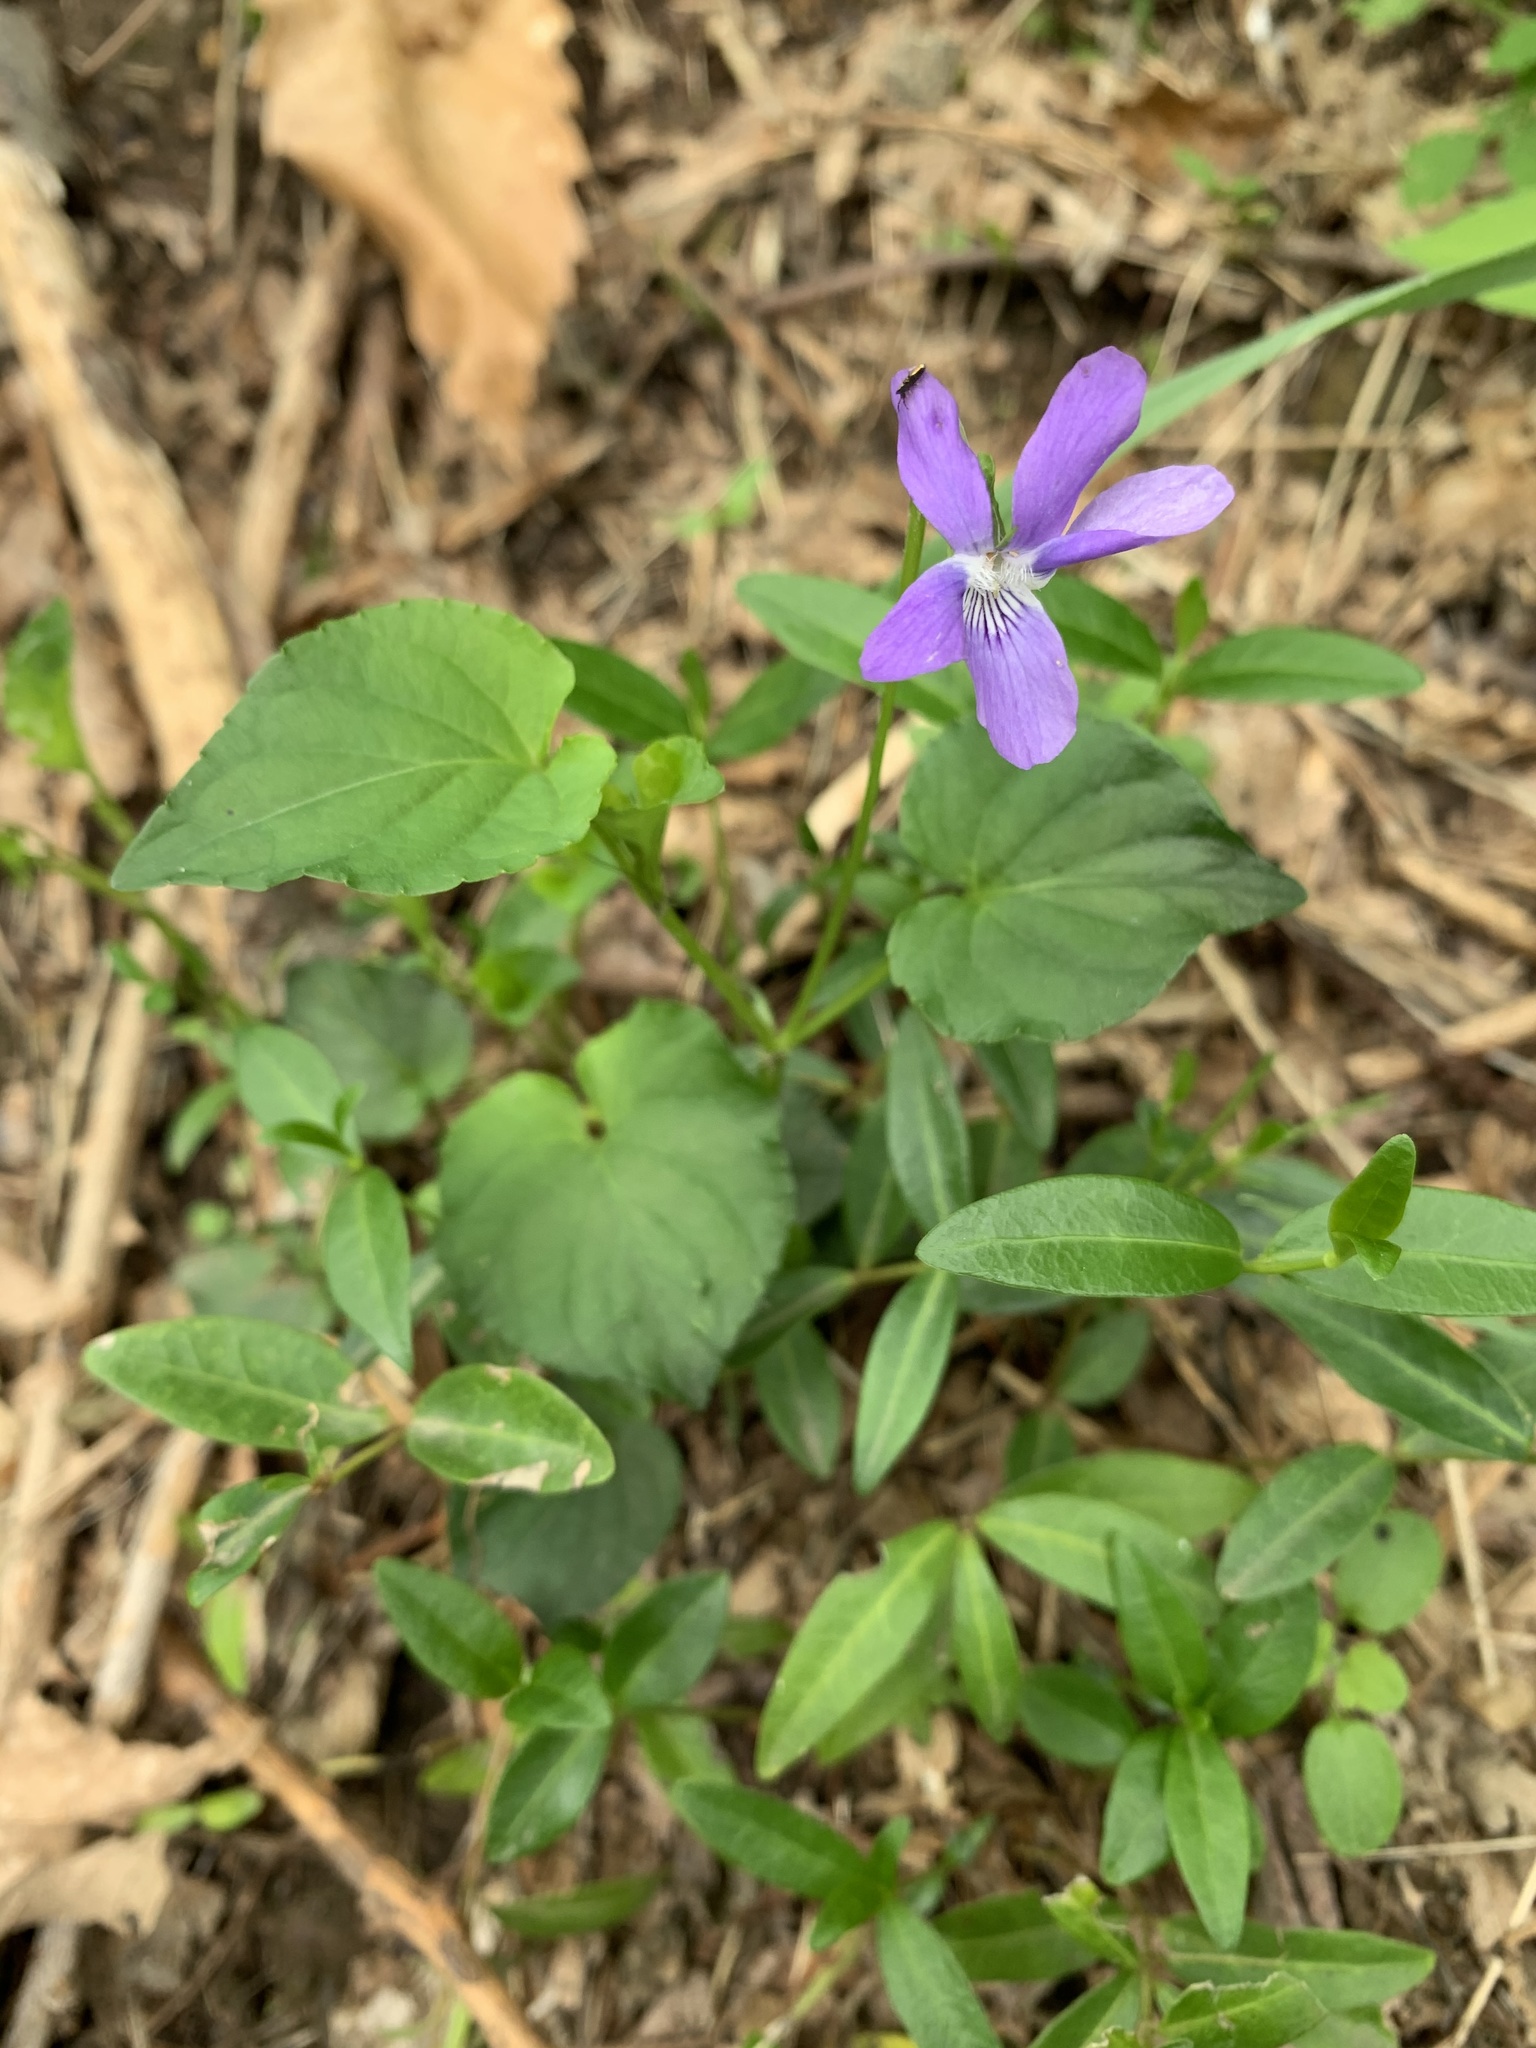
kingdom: Plantae
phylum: Tracheophyta
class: Magnoliopsida
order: Malpighiales
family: Violaceae
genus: Viola
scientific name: Viola reichenbachiana
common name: Early dog-violet
